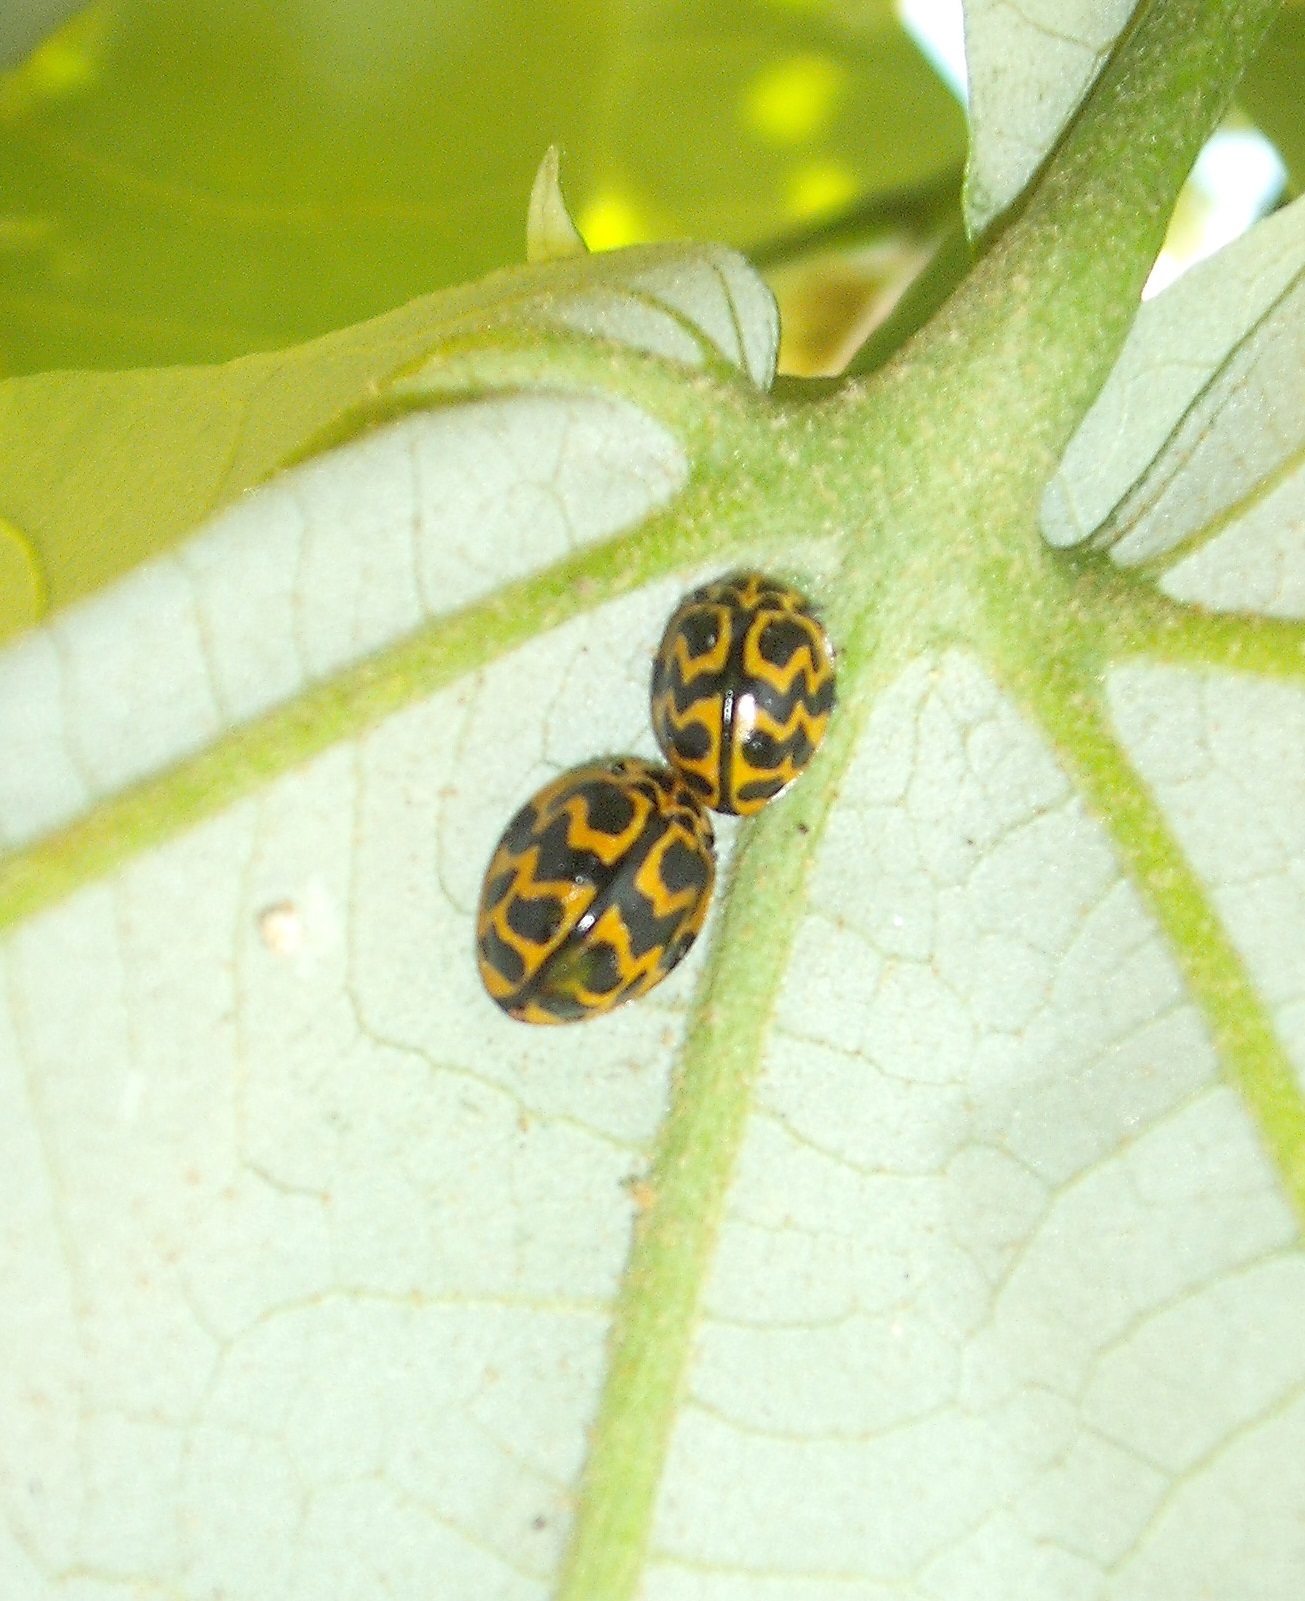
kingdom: Animalia
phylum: Arthropoda
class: Insecta
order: Coleoptera
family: Coccinellidae
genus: Cleobora
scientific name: Cleobora
